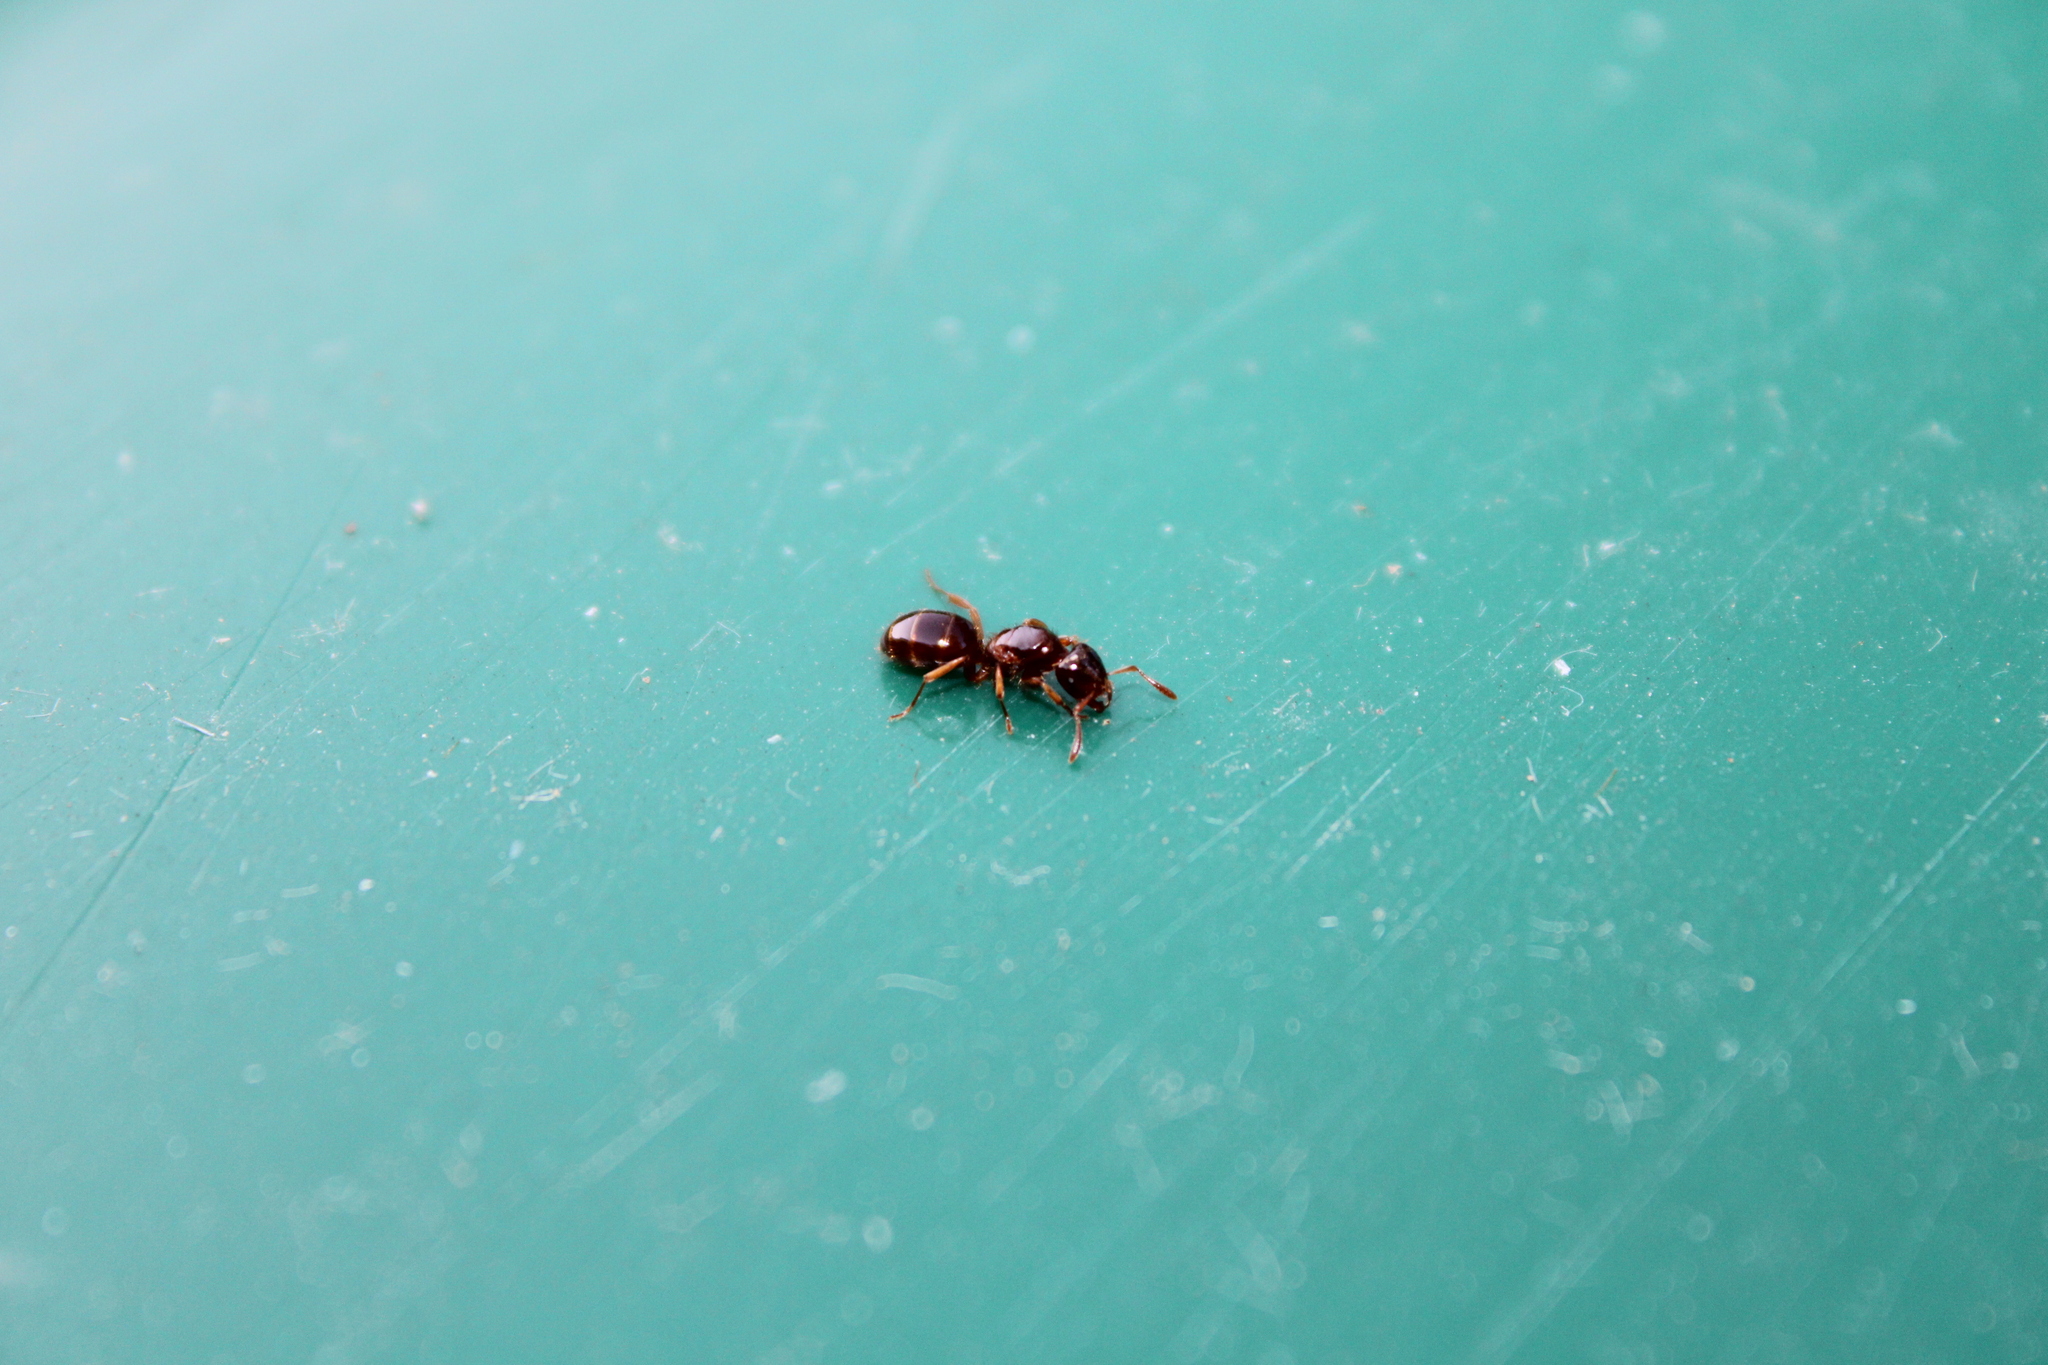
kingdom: Animalia
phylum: Arthropoda
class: Insecta
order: Hymenoptera
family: Formicidae
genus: Lasius
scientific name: Lasius claviger
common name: Common citronella ant
